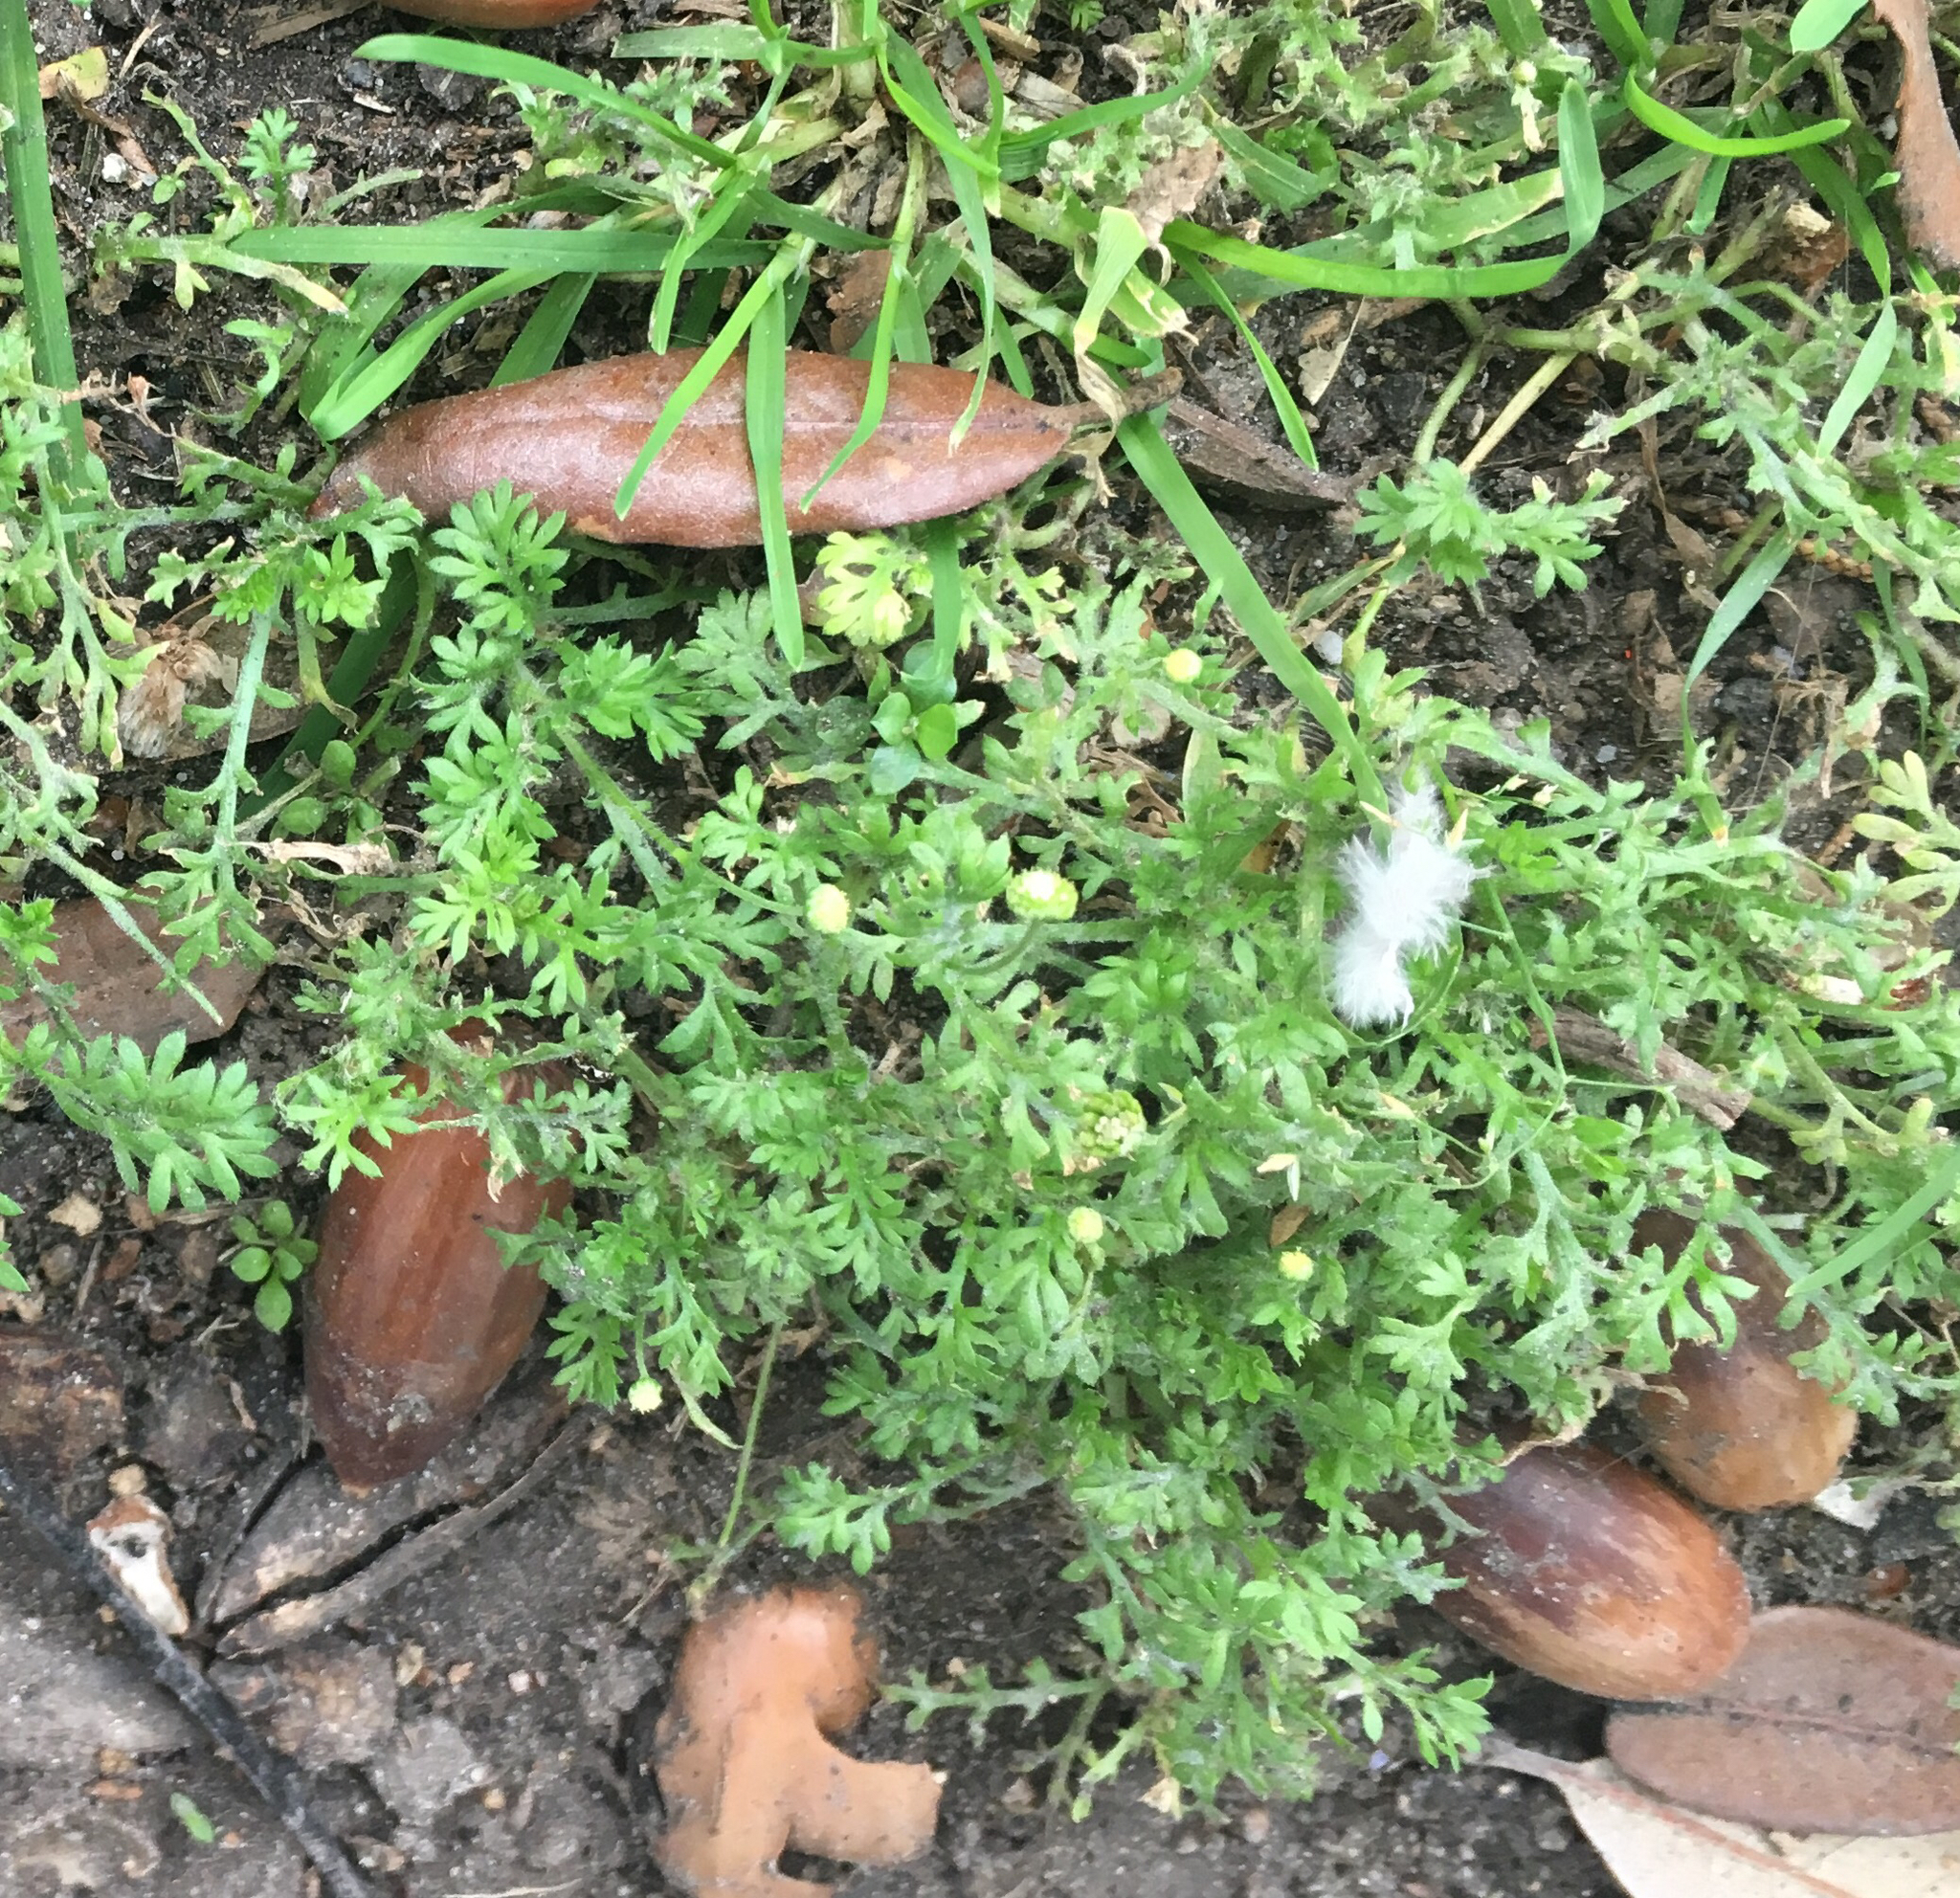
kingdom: Plantae
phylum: Tracheophyta
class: Magnoliopsida
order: Asterales
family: Asteraceae
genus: Cotula
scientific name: Cotula australis
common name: Australian waterbuttons
